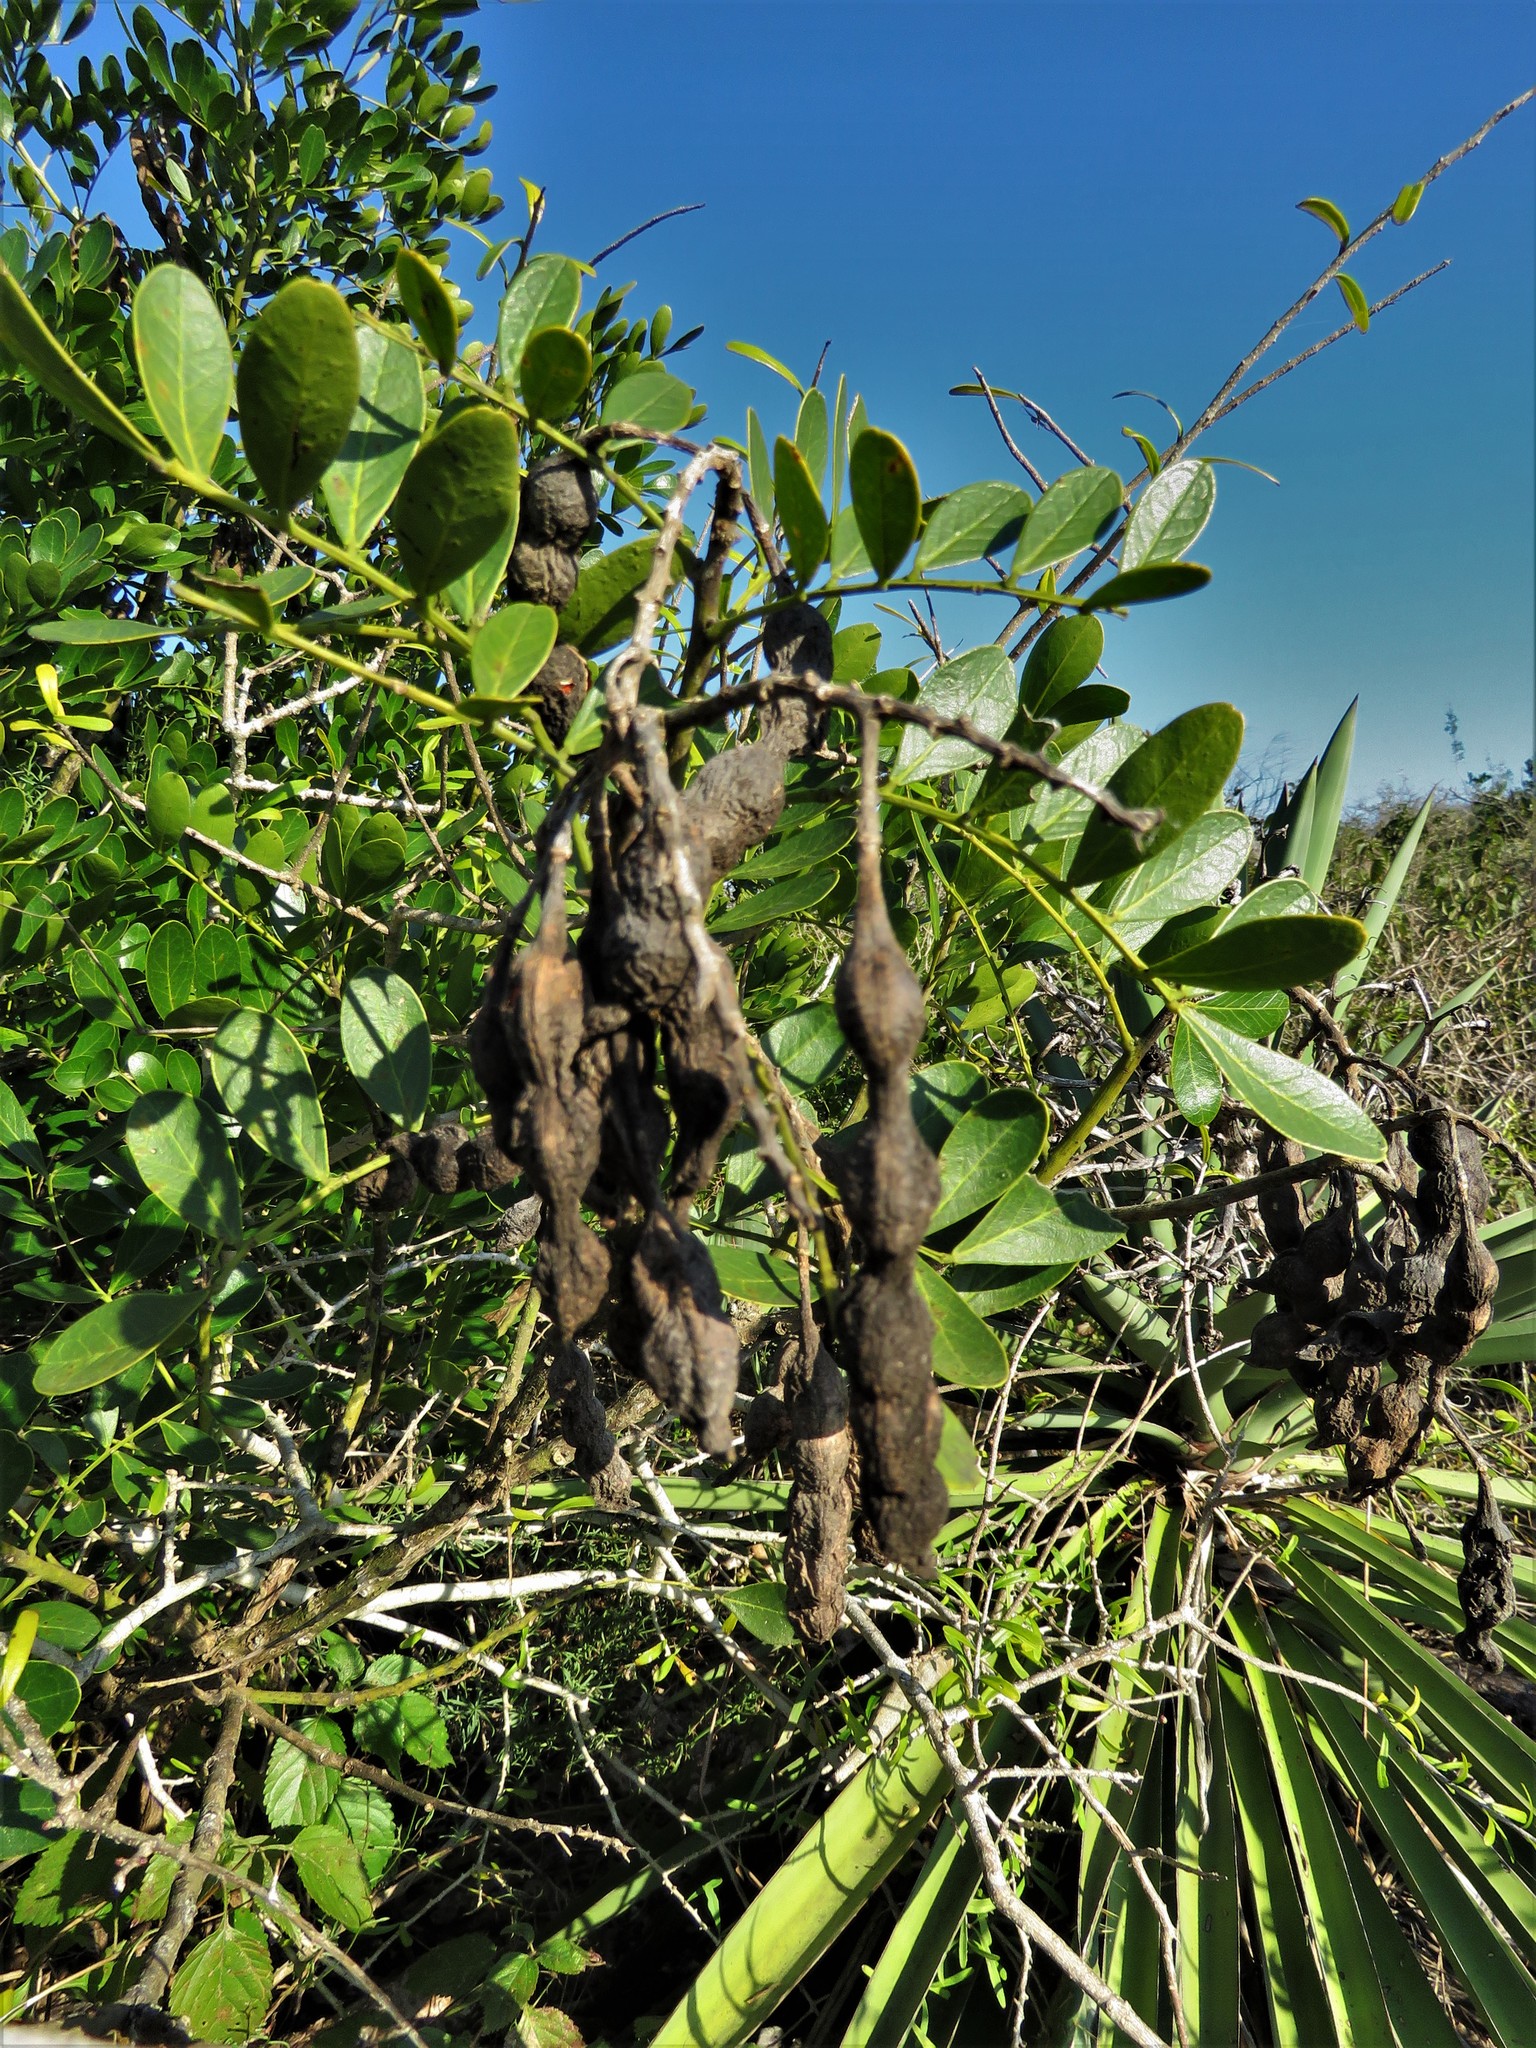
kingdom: Plantae
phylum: Tracheophyta
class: Magnoliopsida
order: Fabales
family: Fabaceae
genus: Dermatophyllum
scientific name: Dermatophyllum secundiflorum
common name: Texas-mountain-laurel
